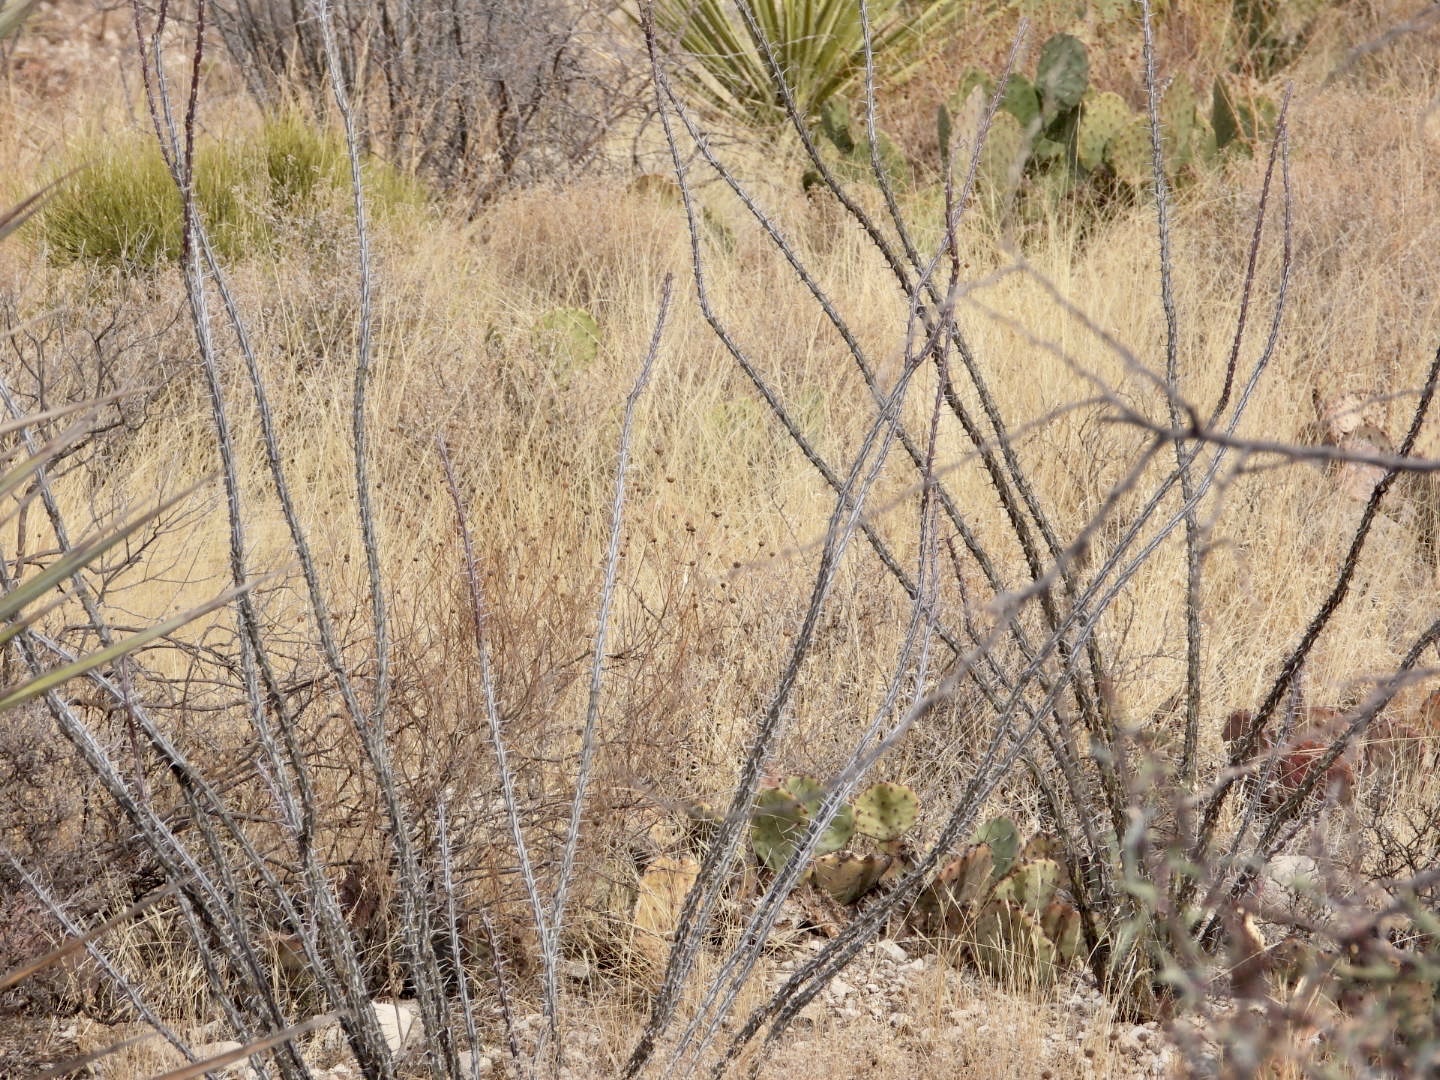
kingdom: Plantae
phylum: Tracheophyta
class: Magnoliopsida
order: Ericales
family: Fouquieriaceae
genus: Fouquieria
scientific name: Fouquieria splendens
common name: Vine-cactus
